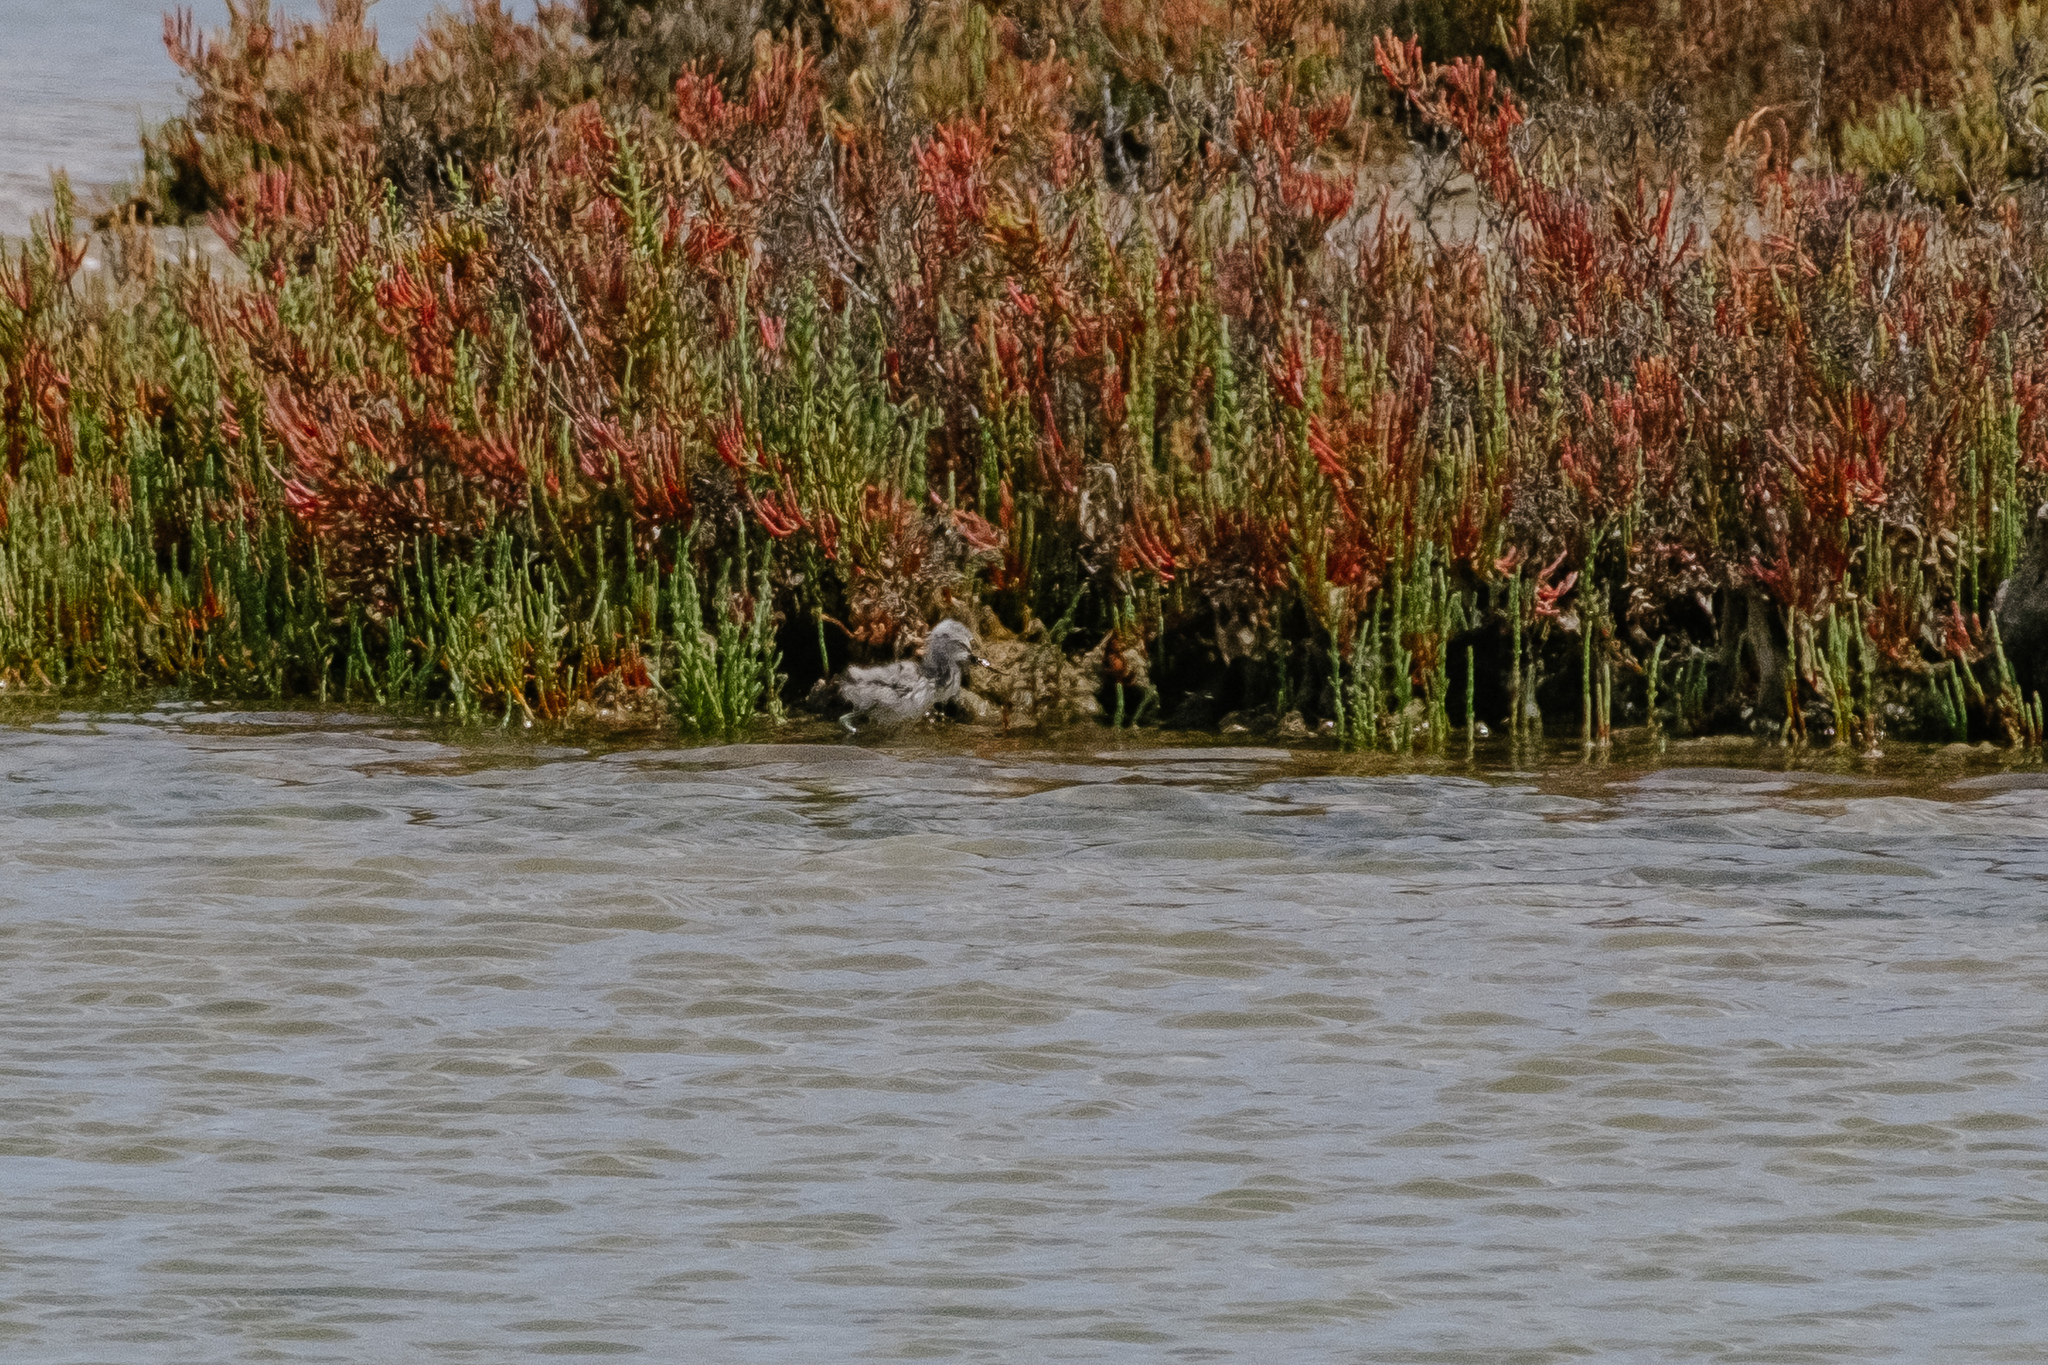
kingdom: Animalia
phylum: Chordata
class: Aves
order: Charadriiformes
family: Recurvirostridae
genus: Recurvirostra
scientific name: Recurvirostra avosetta
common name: Pied avocet
